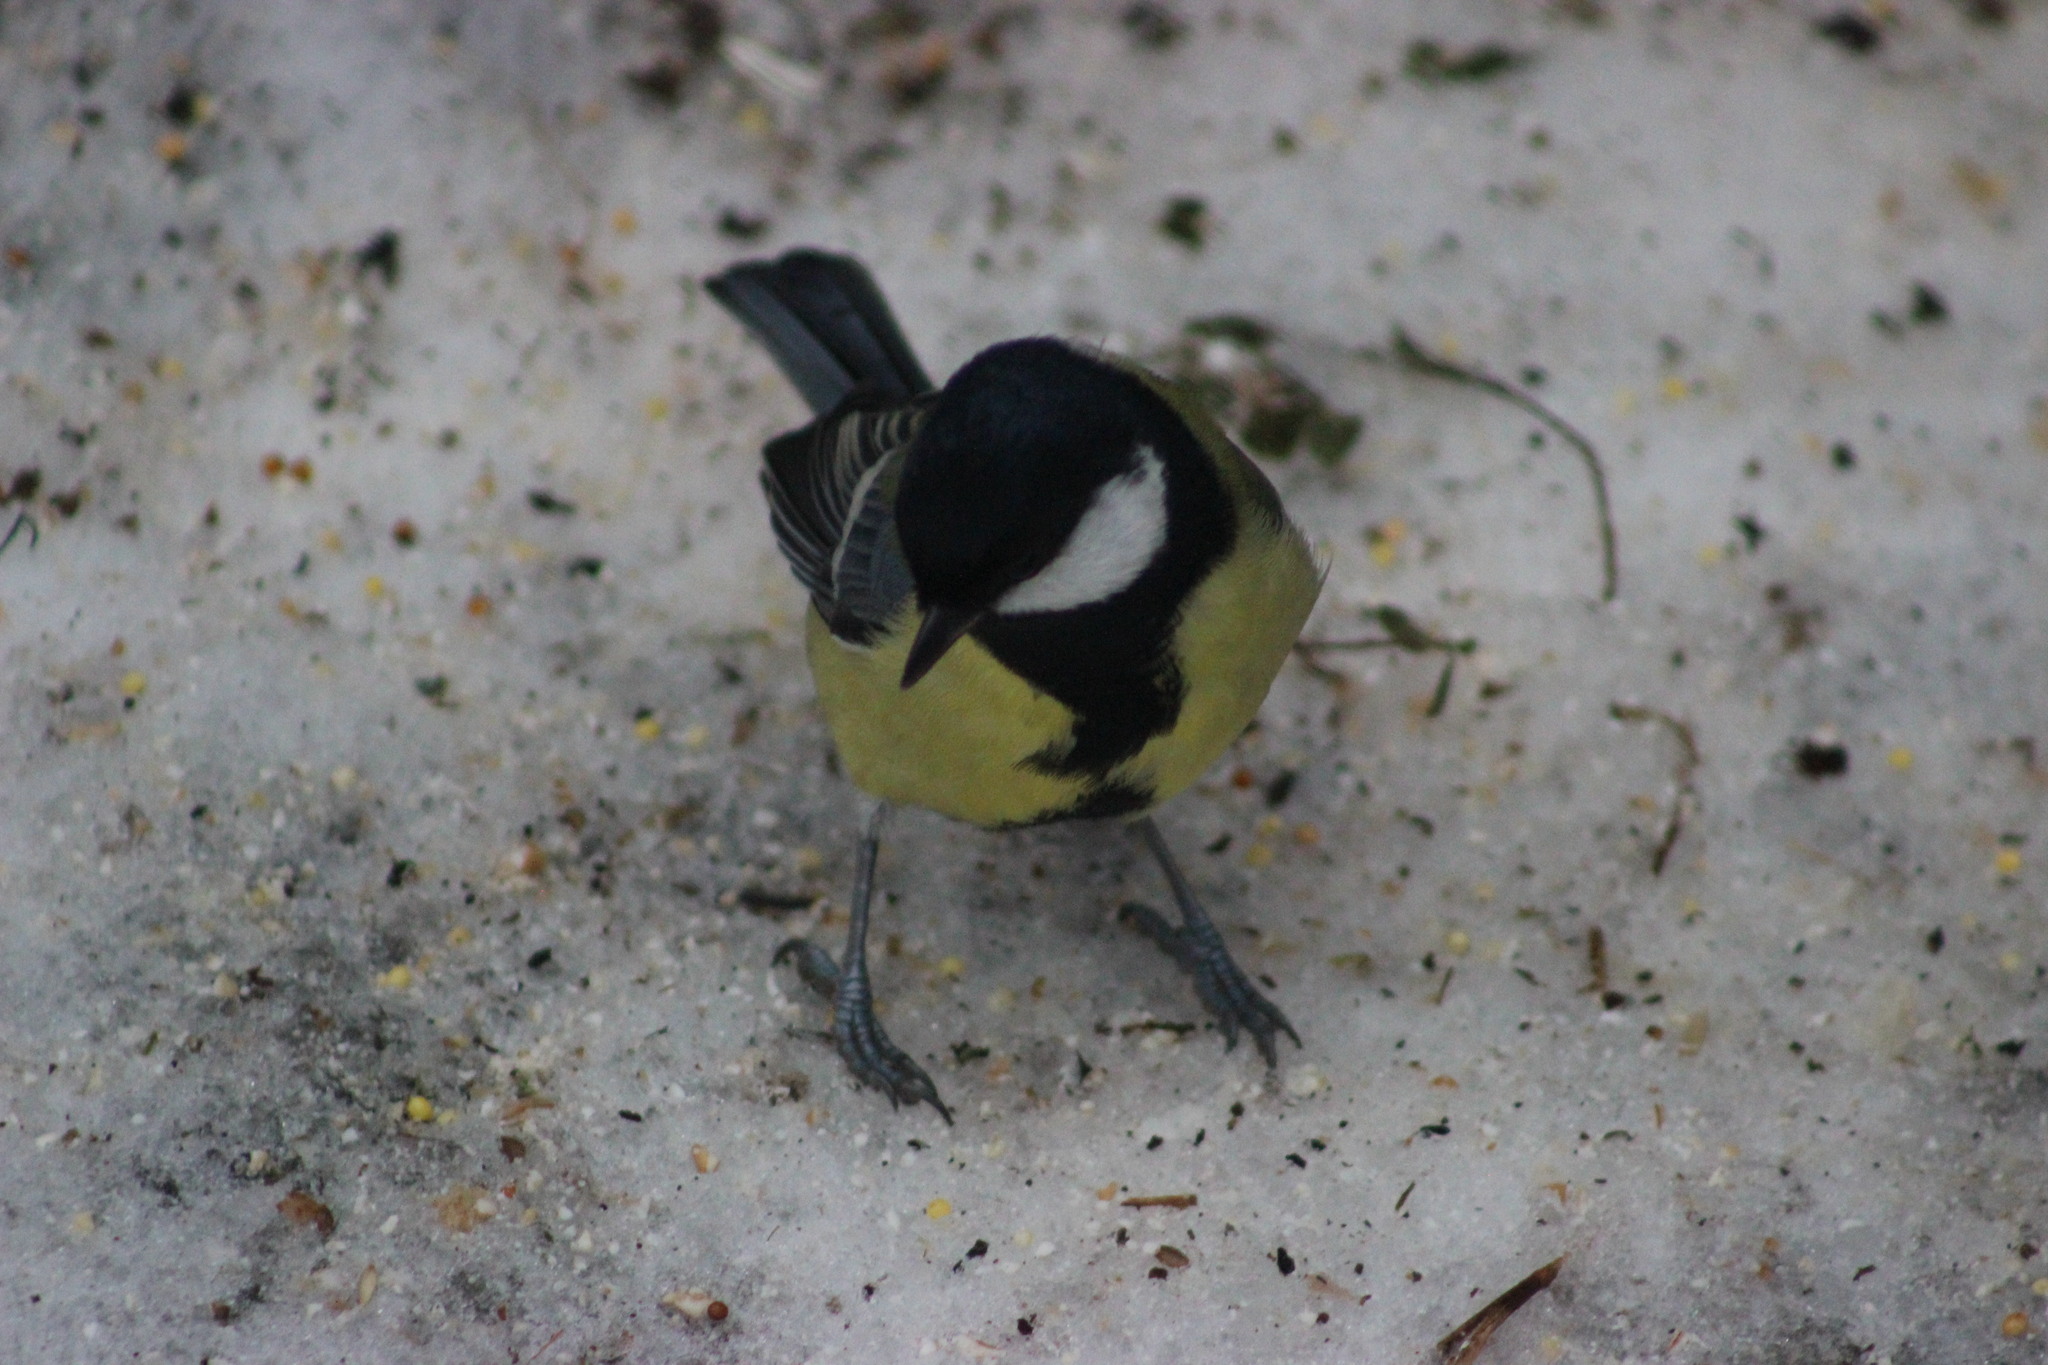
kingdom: Animalia
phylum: Chordata
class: Aves
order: Passeriformes
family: Paridae
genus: Parus
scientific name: Parus major
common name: Great tit
